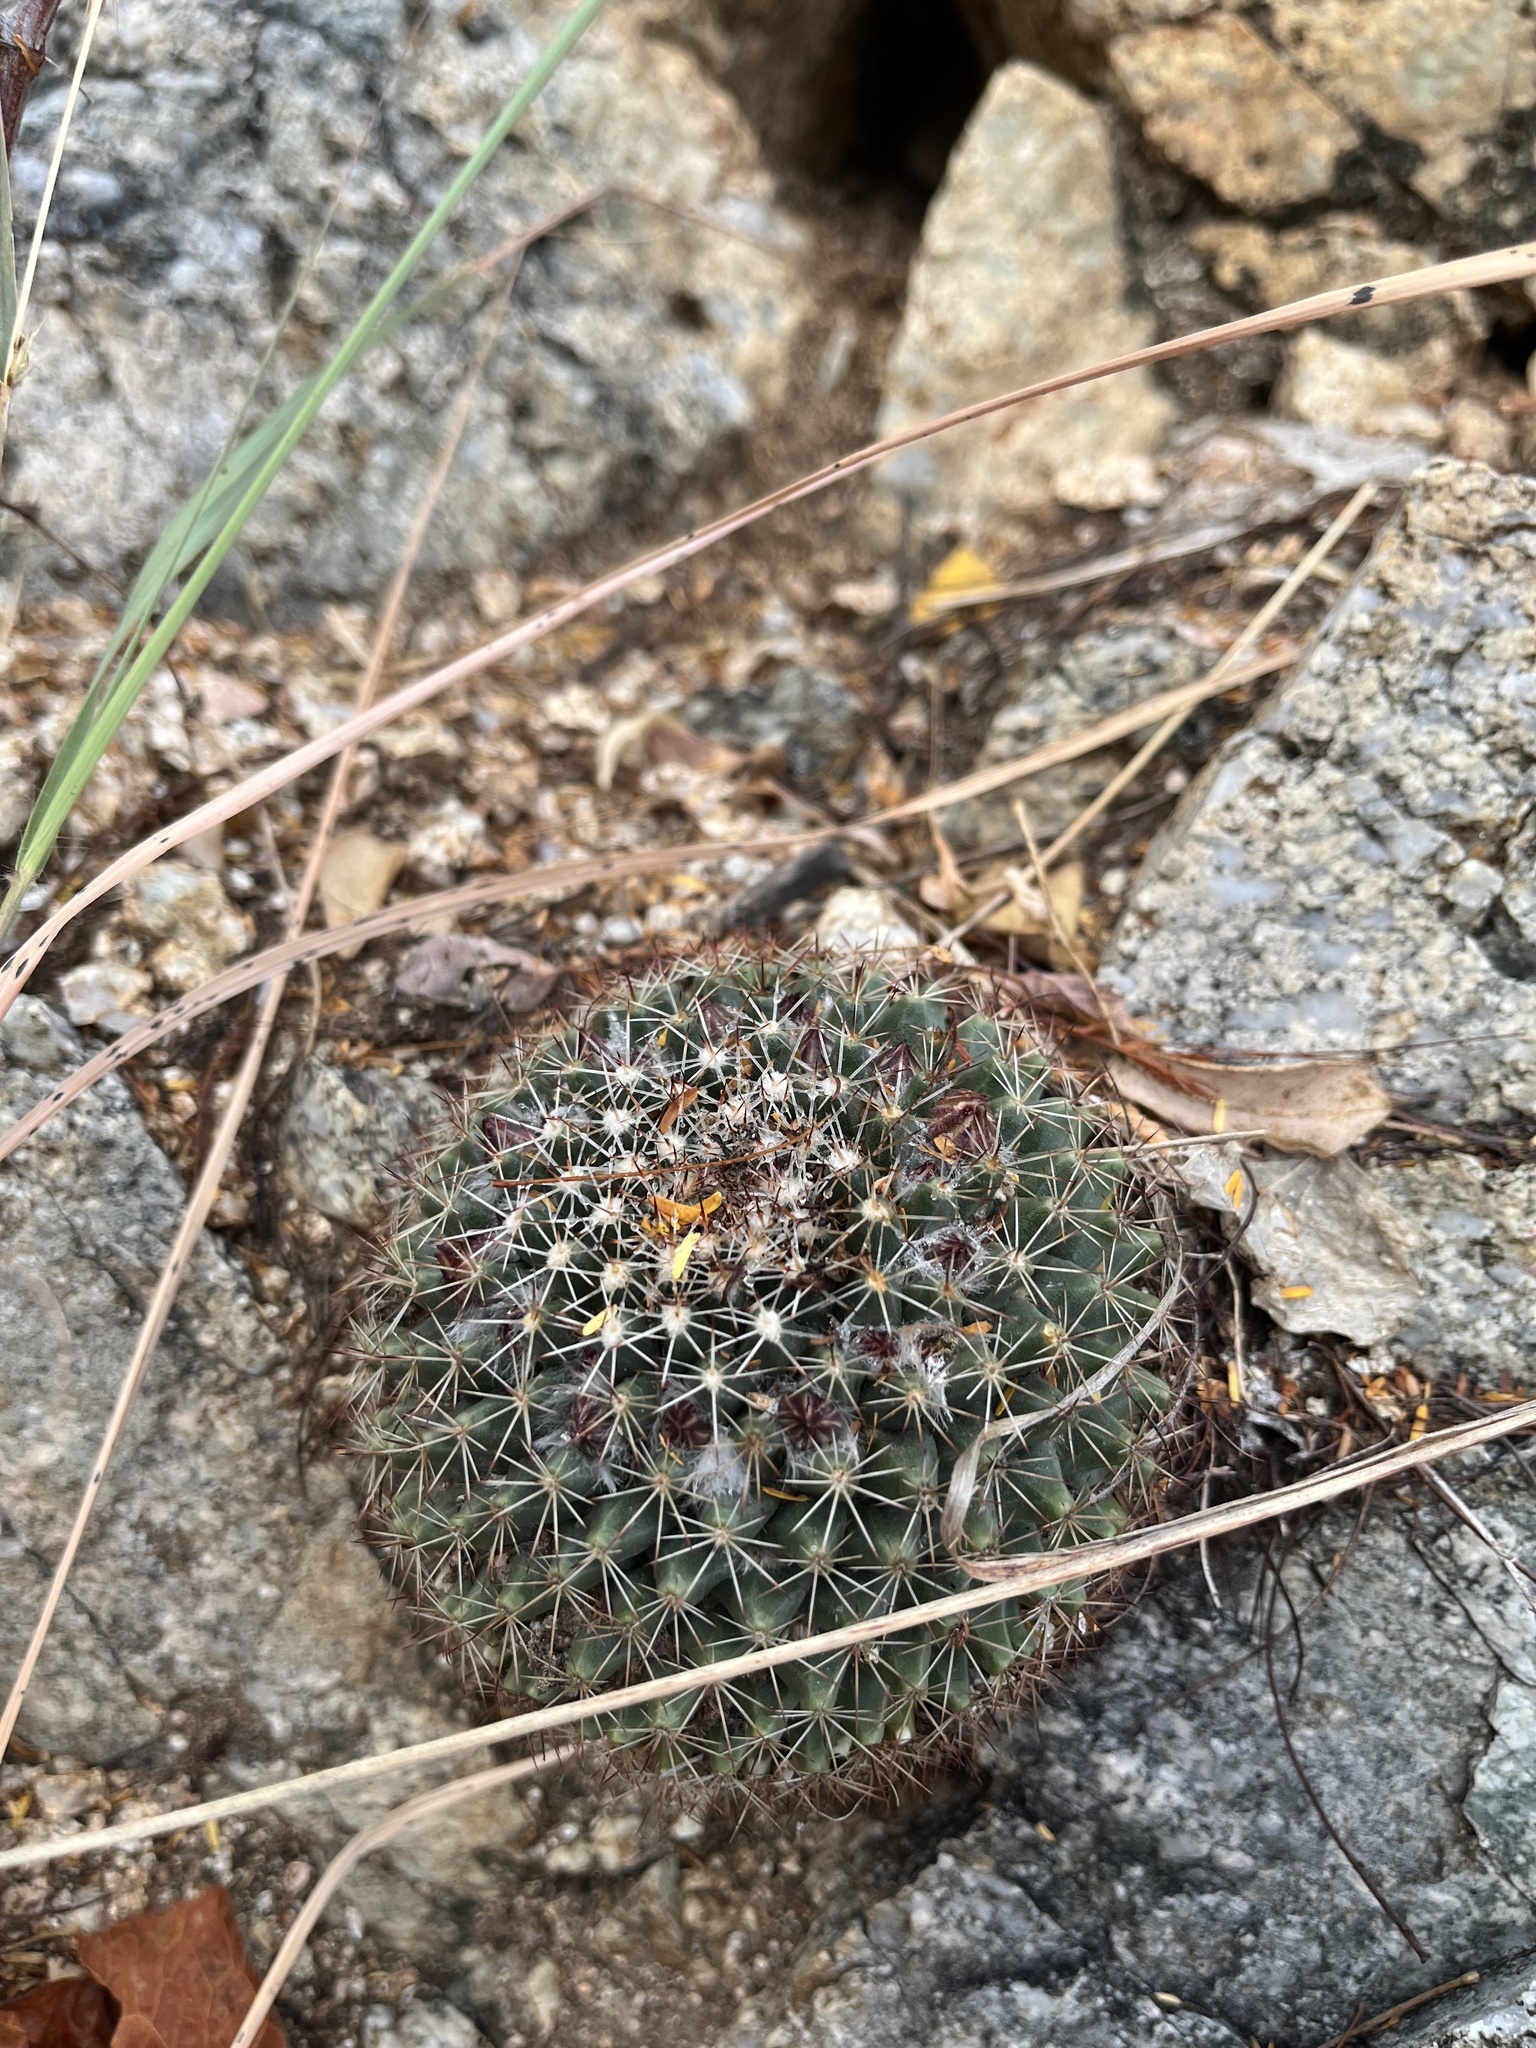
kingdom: Plantae
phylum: Tracheophyta
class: Magnoliopsida
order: Caryophyllales
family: Cactaceae
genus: Mammillaria
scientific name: Mammillaria petrophila
